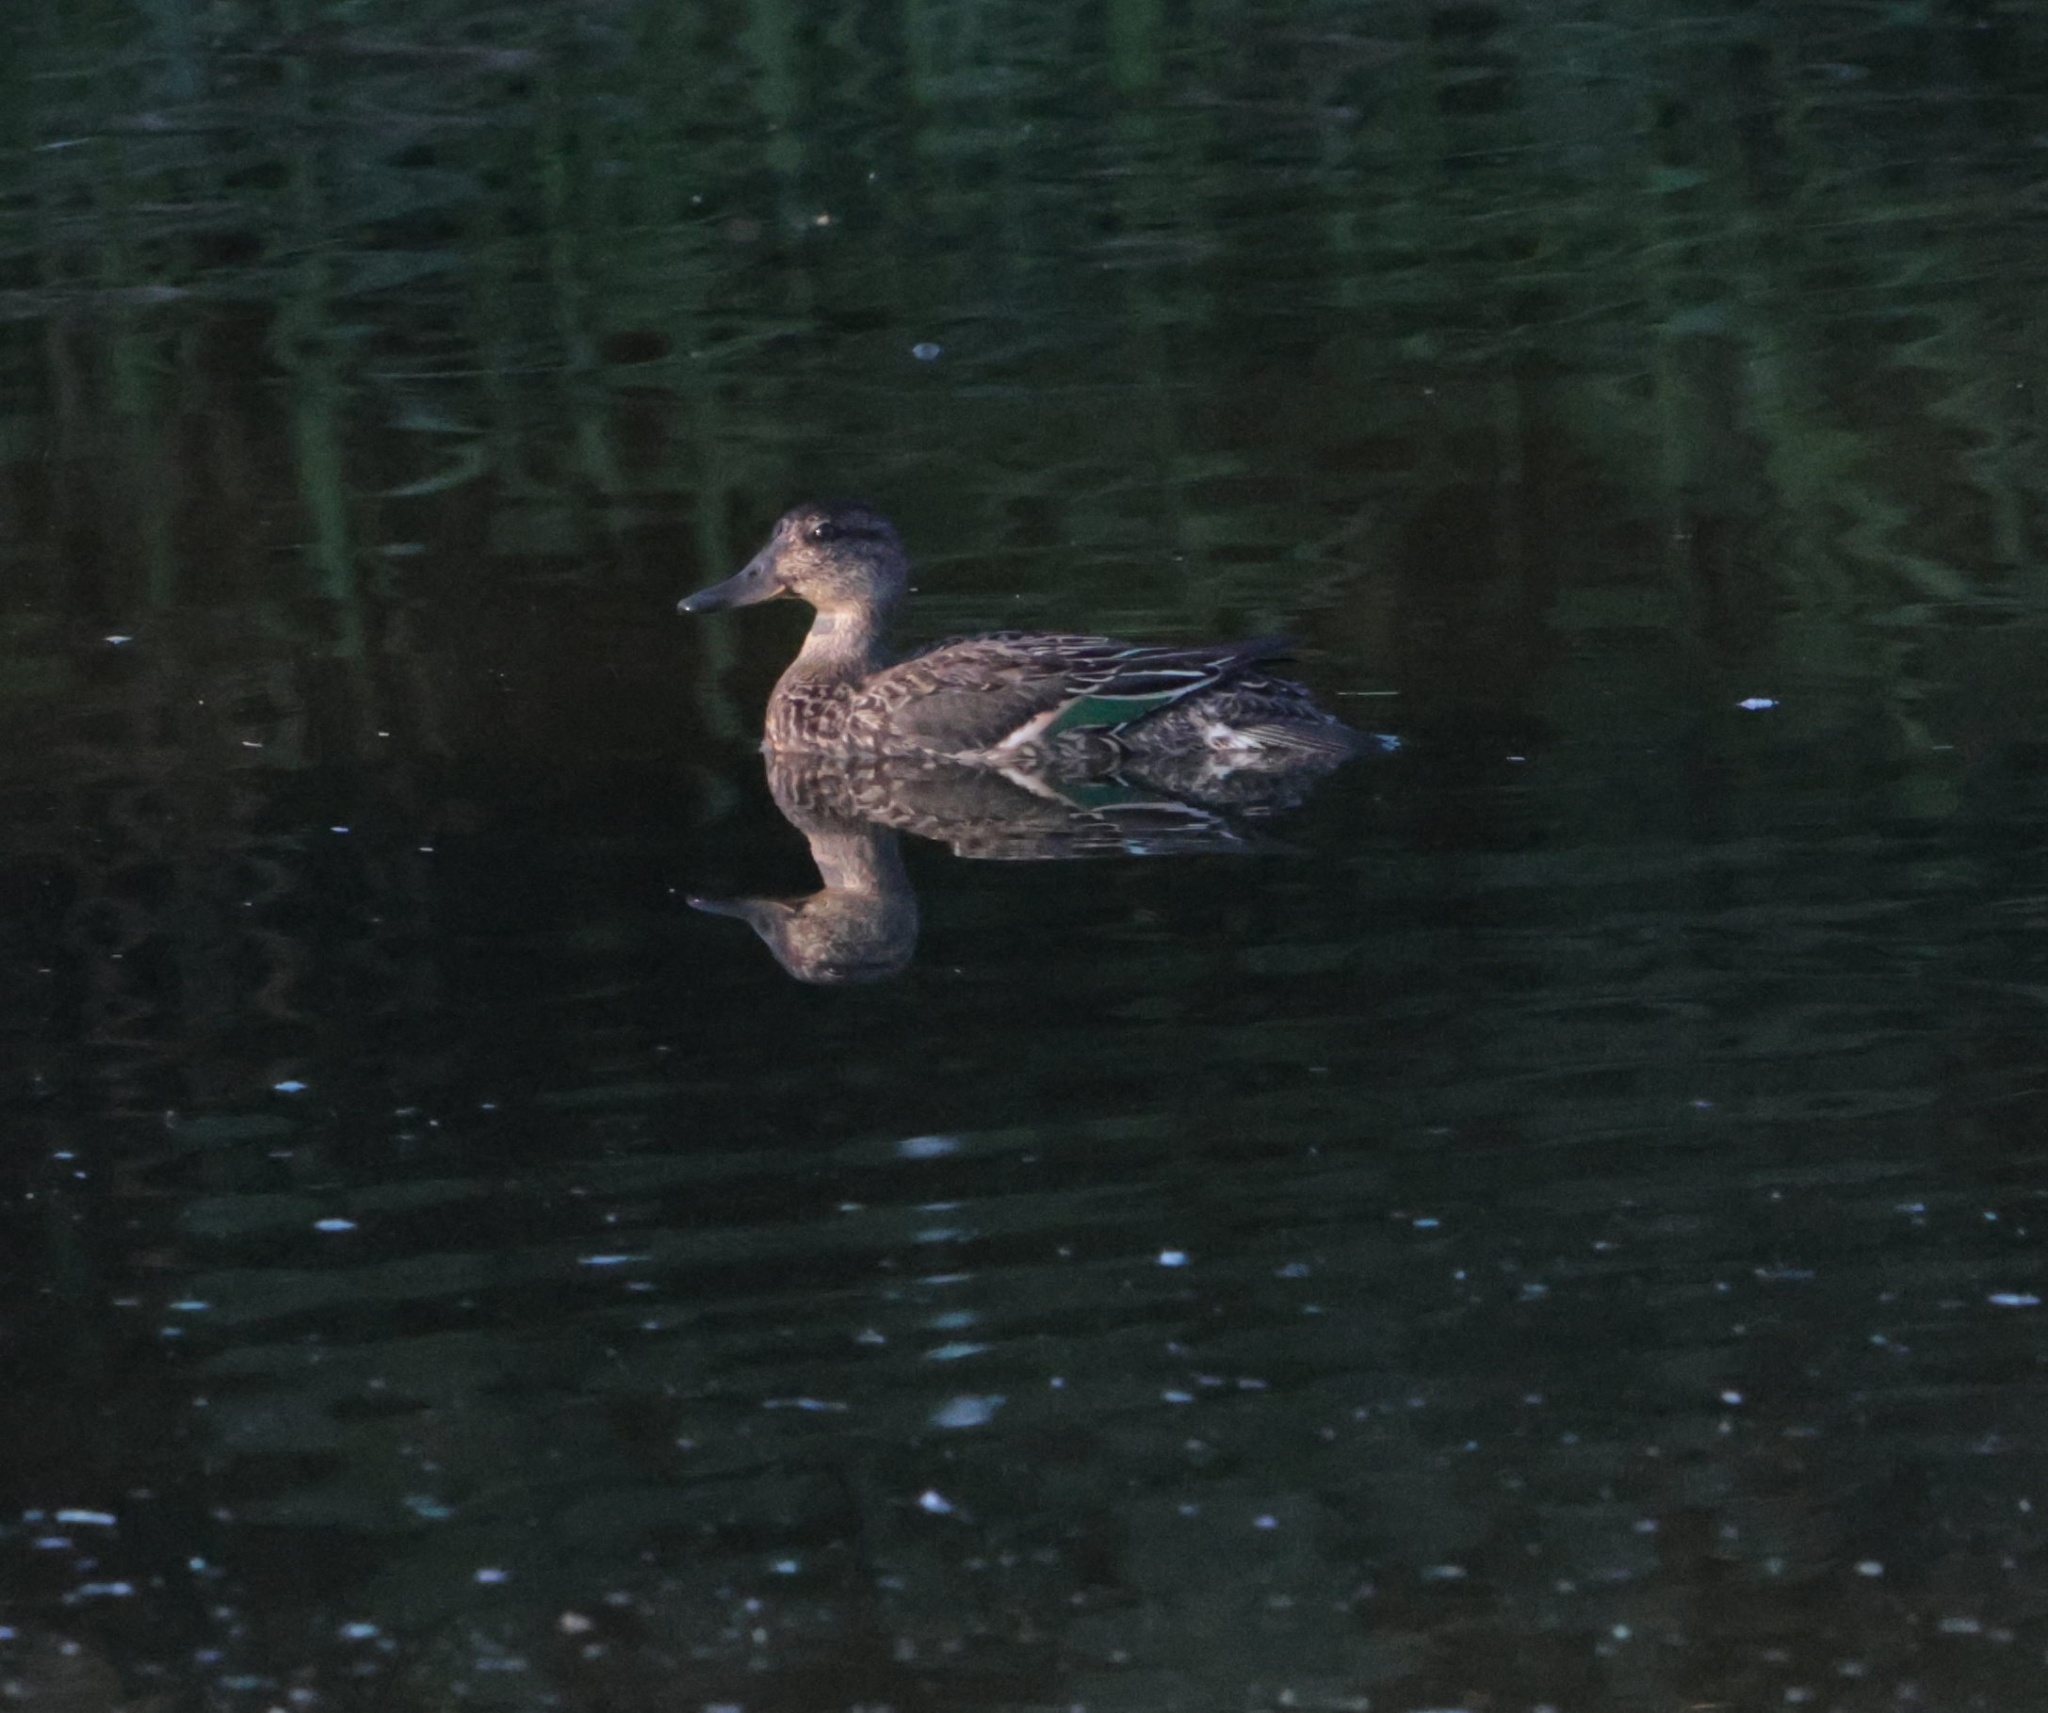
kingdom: Animalia
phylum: Chordata
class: Aves
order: Anseriformes
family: Anatidae
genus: Anas
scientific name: Anas crecca
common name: Eurasian teal
